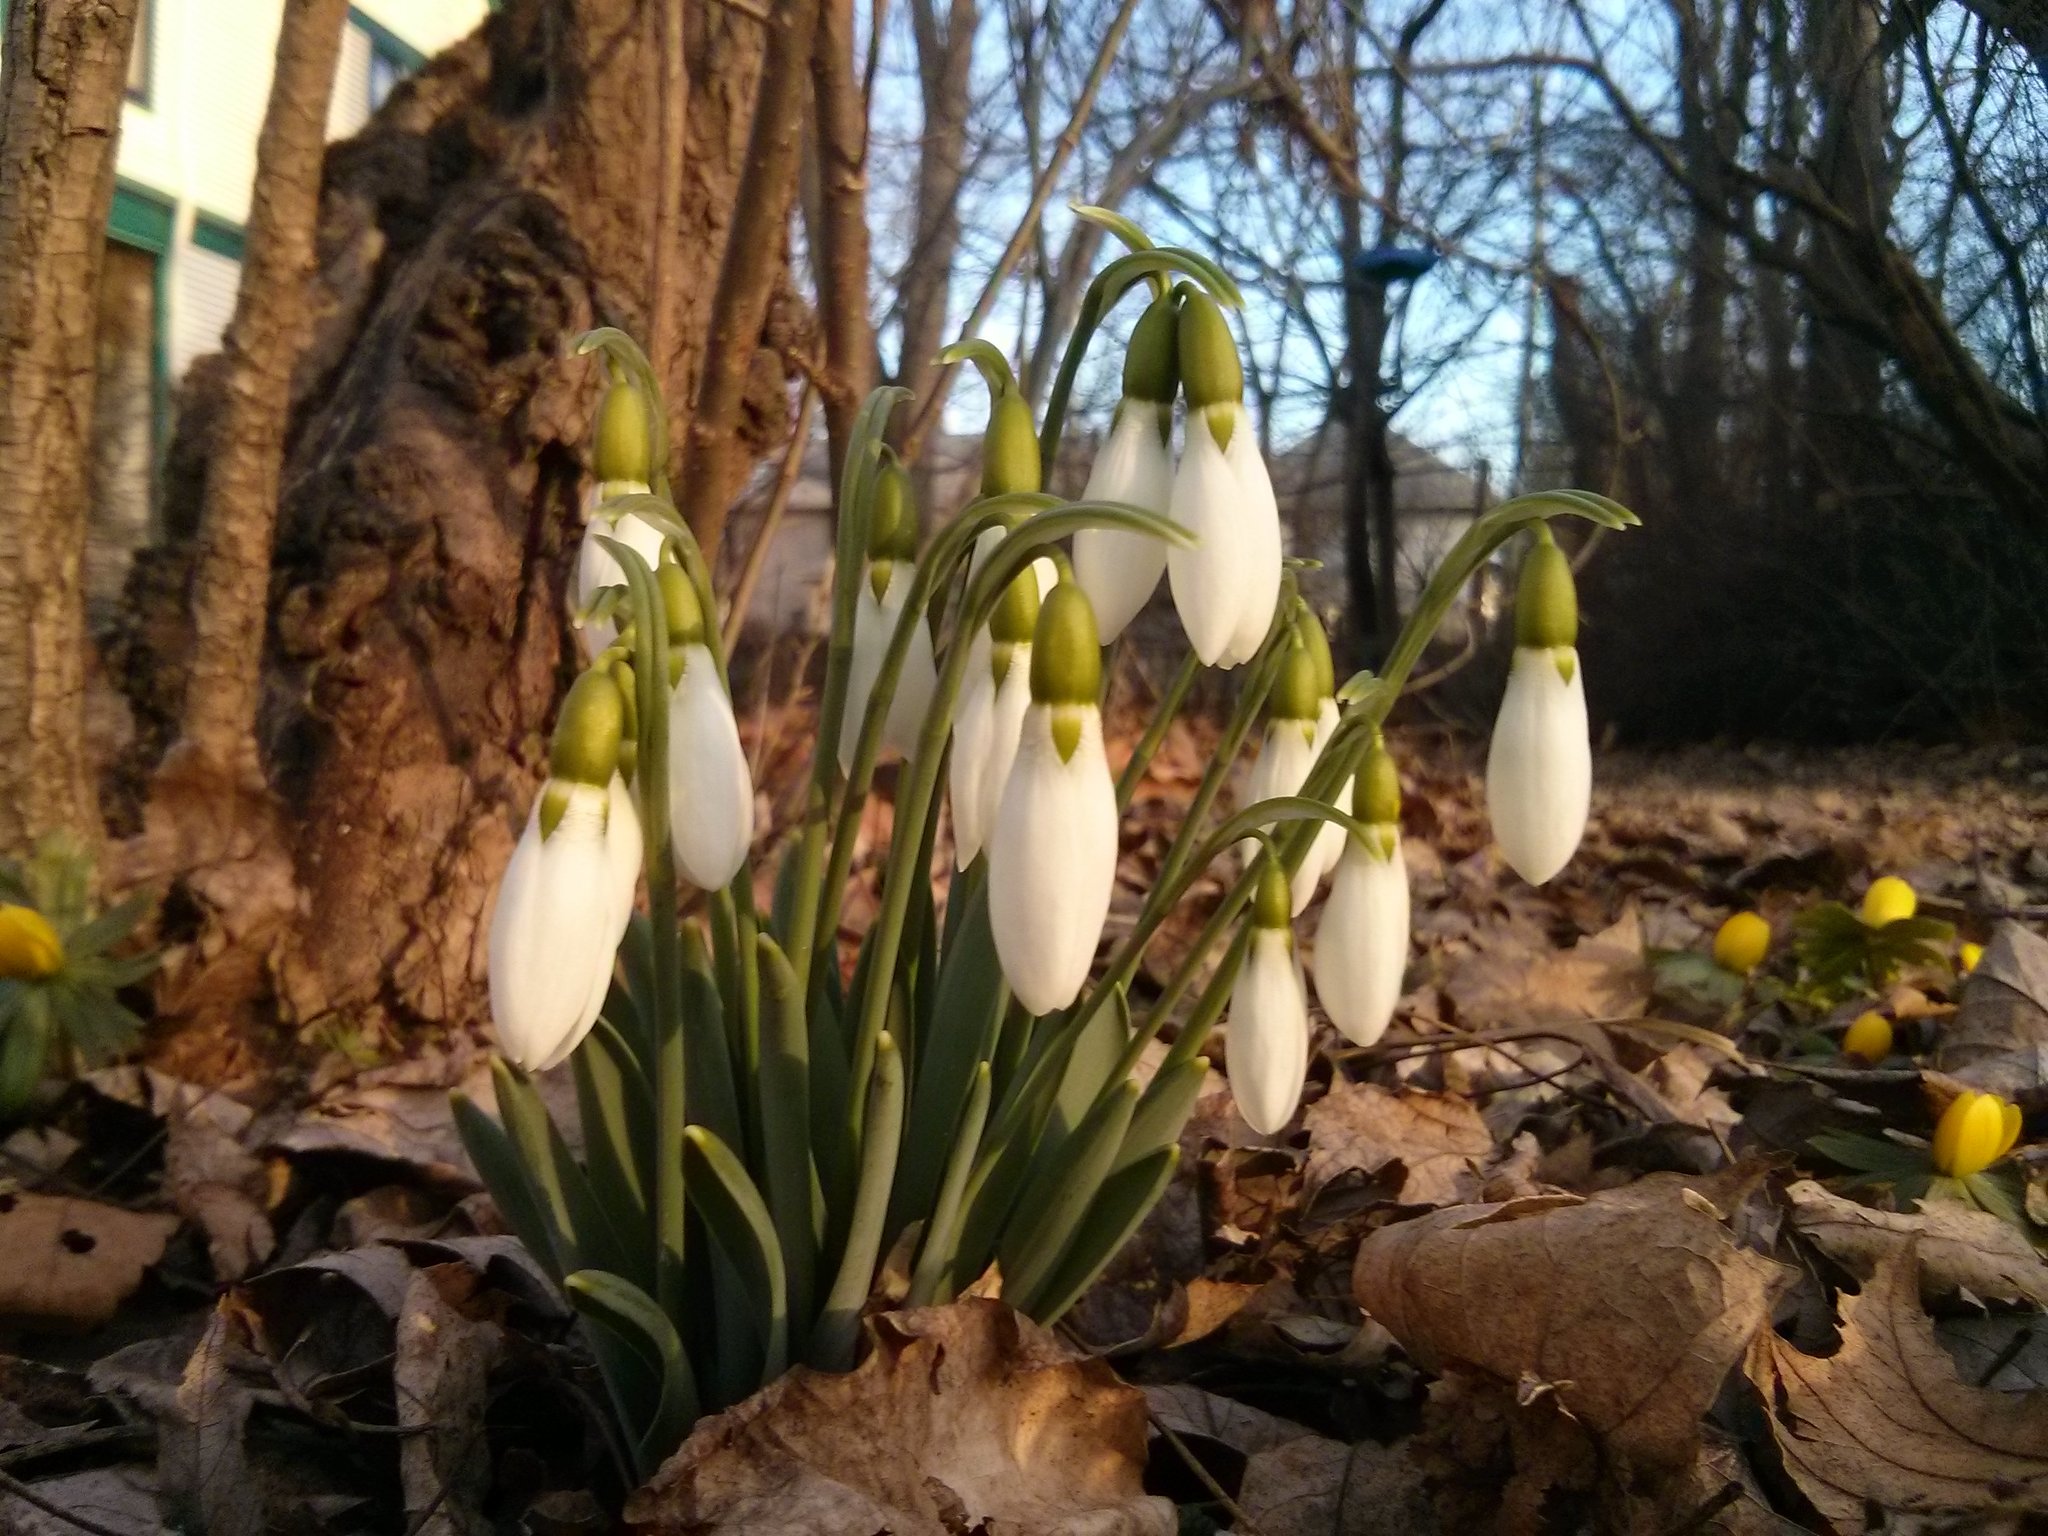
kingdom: Plantae
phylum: Tracheophyta
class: Liliopsida
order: Asparagales
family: Amaryllidaceae
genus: Galanthus
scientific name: Galanthus elwesii
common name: Greater snowdrop
